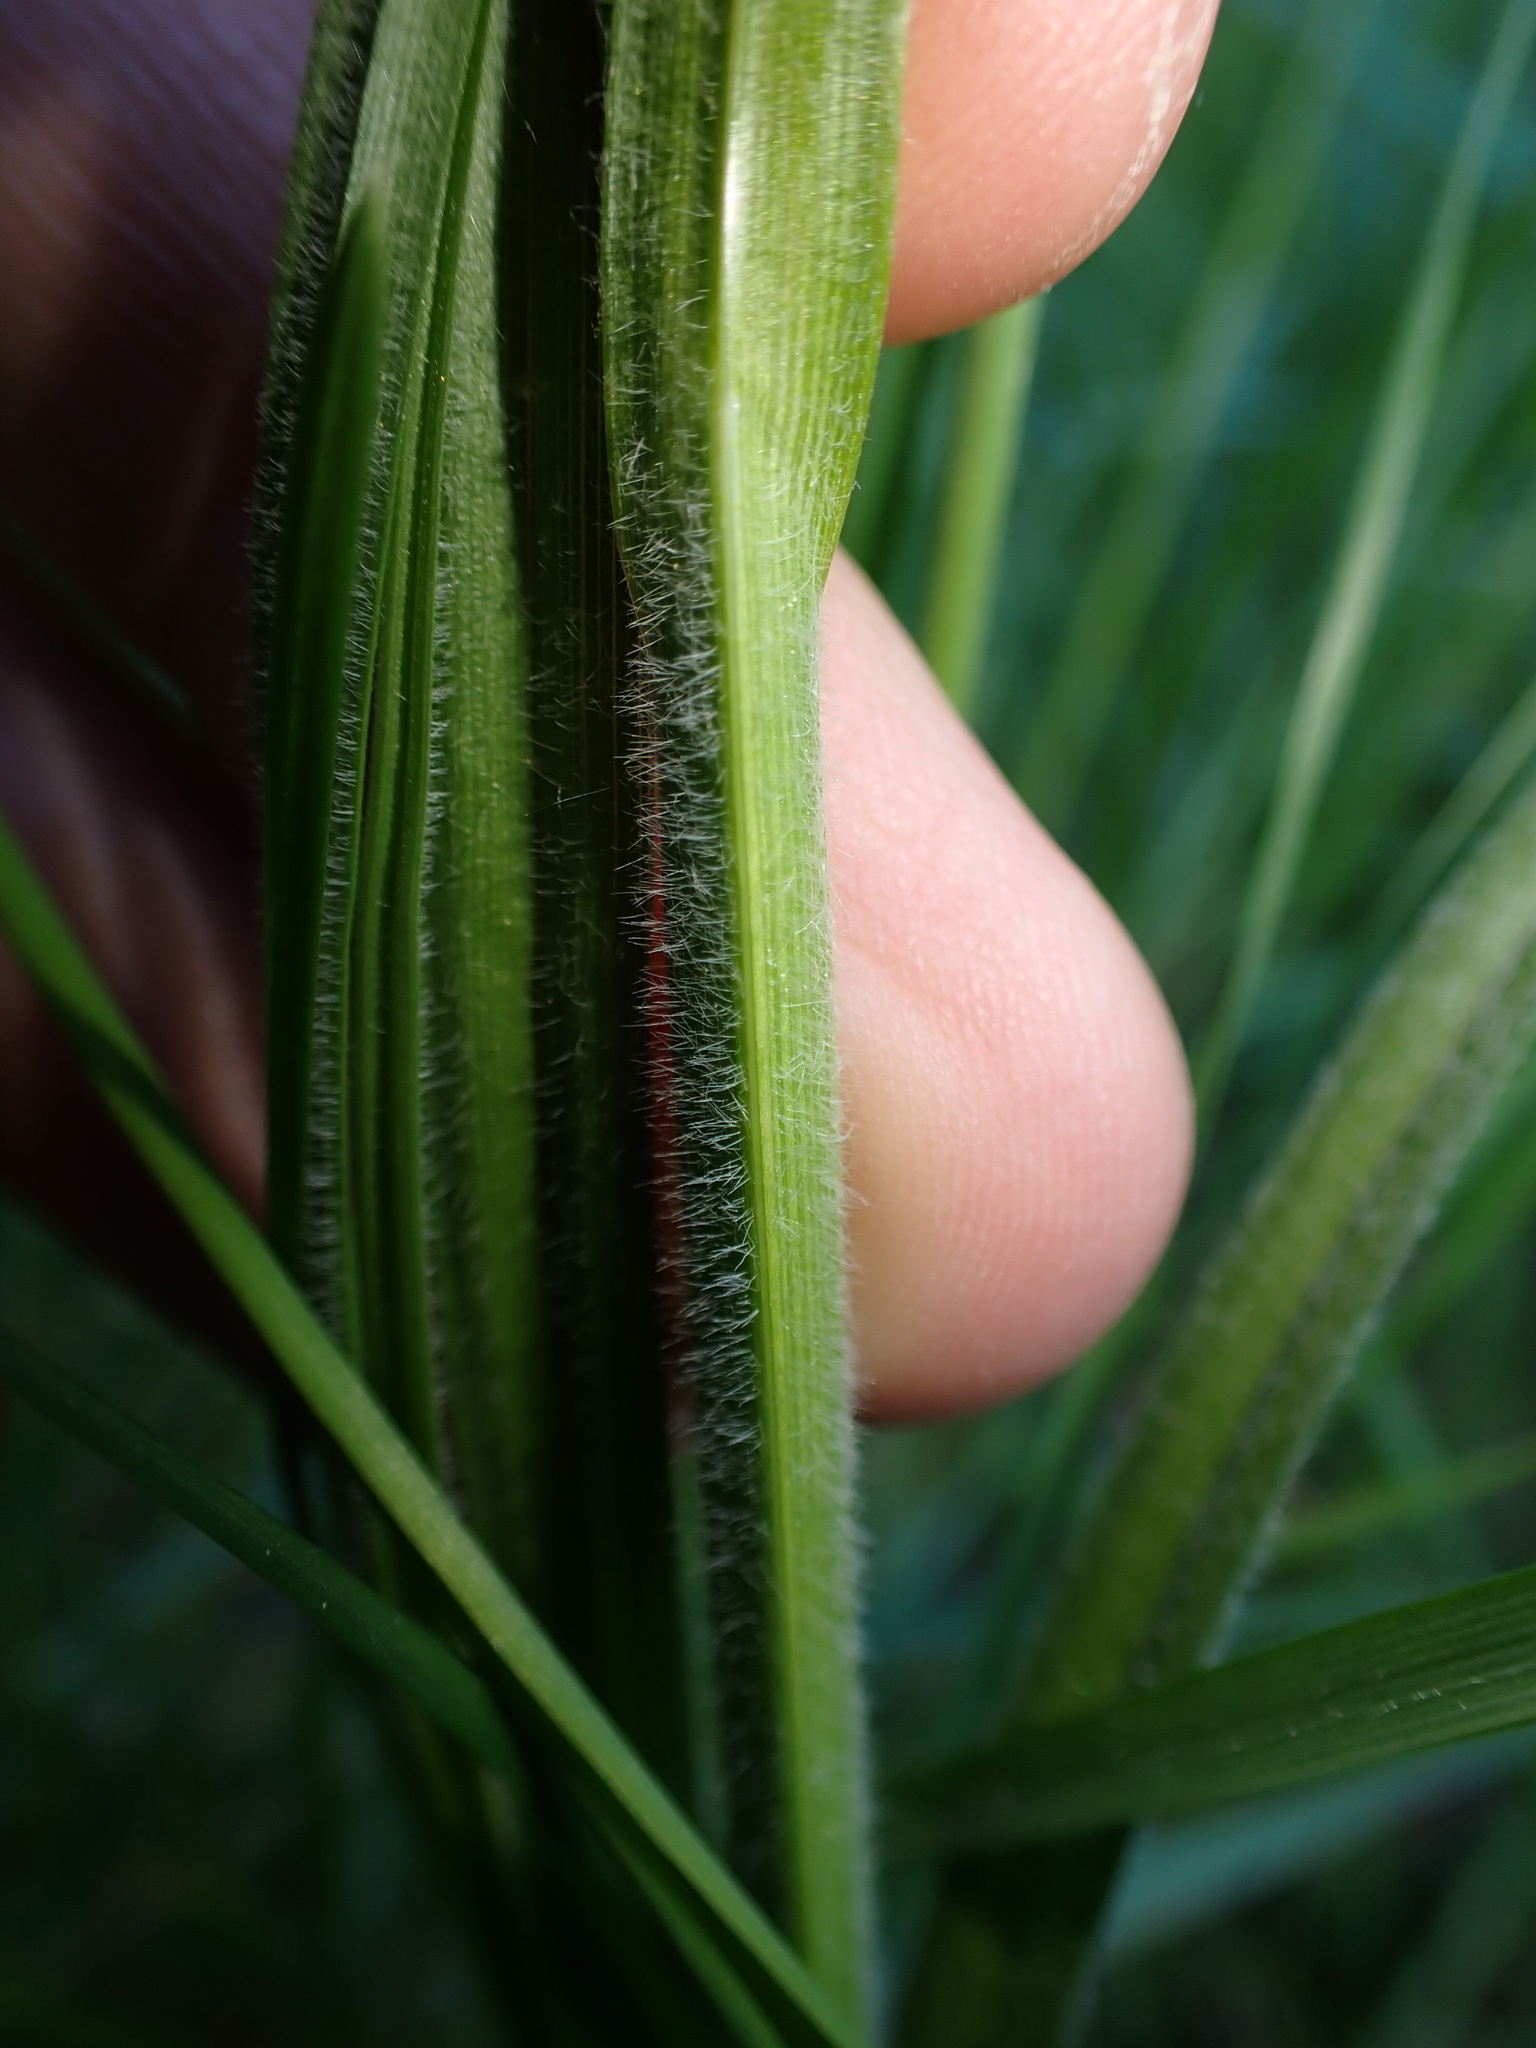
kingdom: Plantae
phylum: Tracheophyta
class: Liliopsida
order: Poales
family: Cyperaceae
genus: Carex
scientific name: Carex hirta
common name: Hairy sedge
